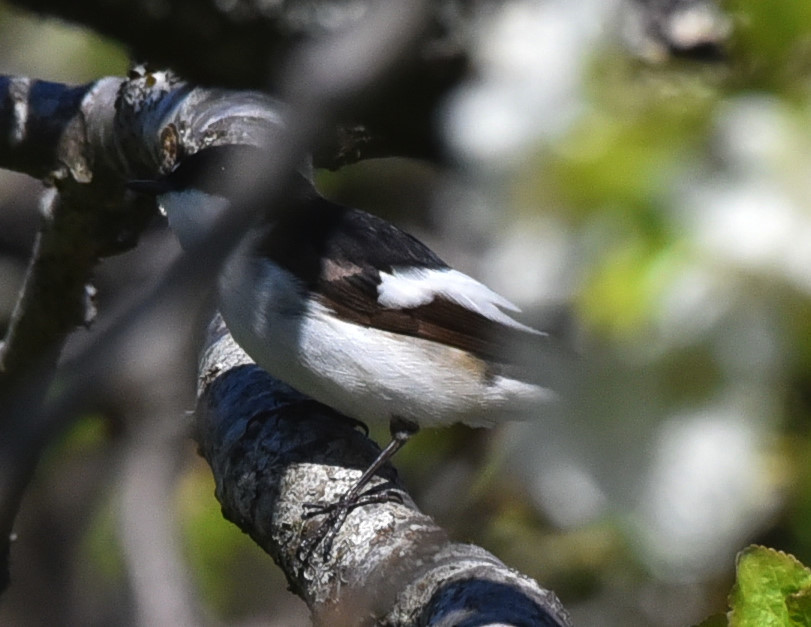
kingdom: Animalia
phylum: Chordata
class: Aves
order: Passeriformes
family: Muscicapidae
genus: Ficedula
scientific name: Ficedula hypoleuca
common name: European pied flycatcher
